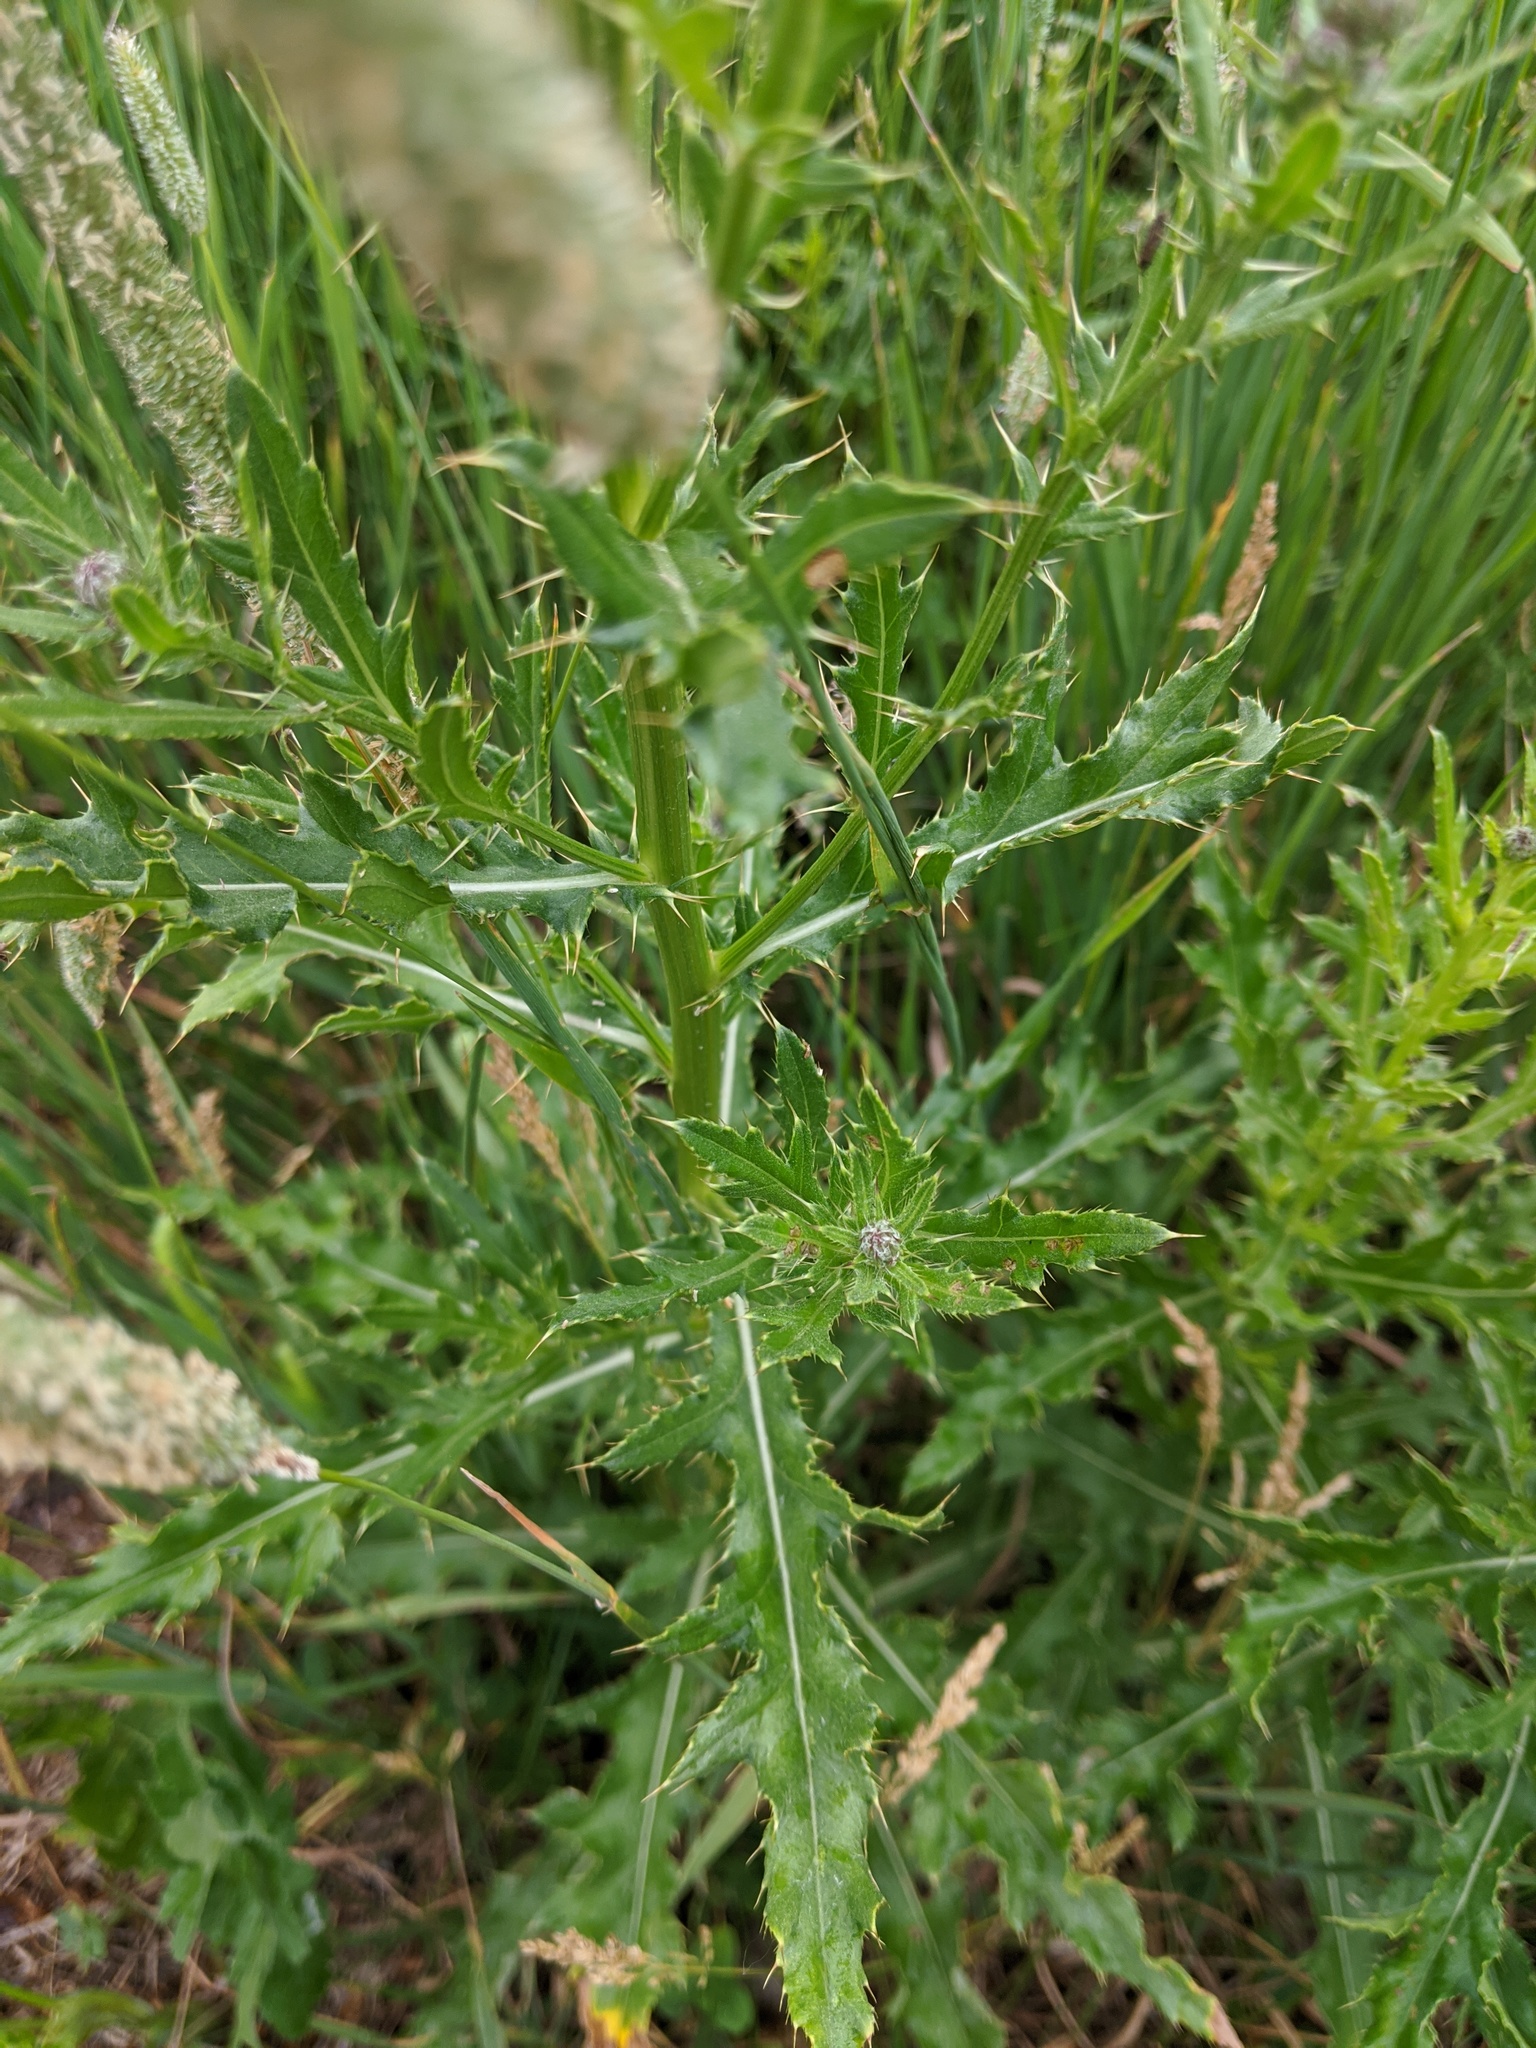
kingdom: Plantae
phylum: Tracheophyta
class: Magnoliopsida
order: Asterales
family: Asteraceae
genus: Cirsium
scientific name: Cirsium arvense
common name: Creeping thistle
